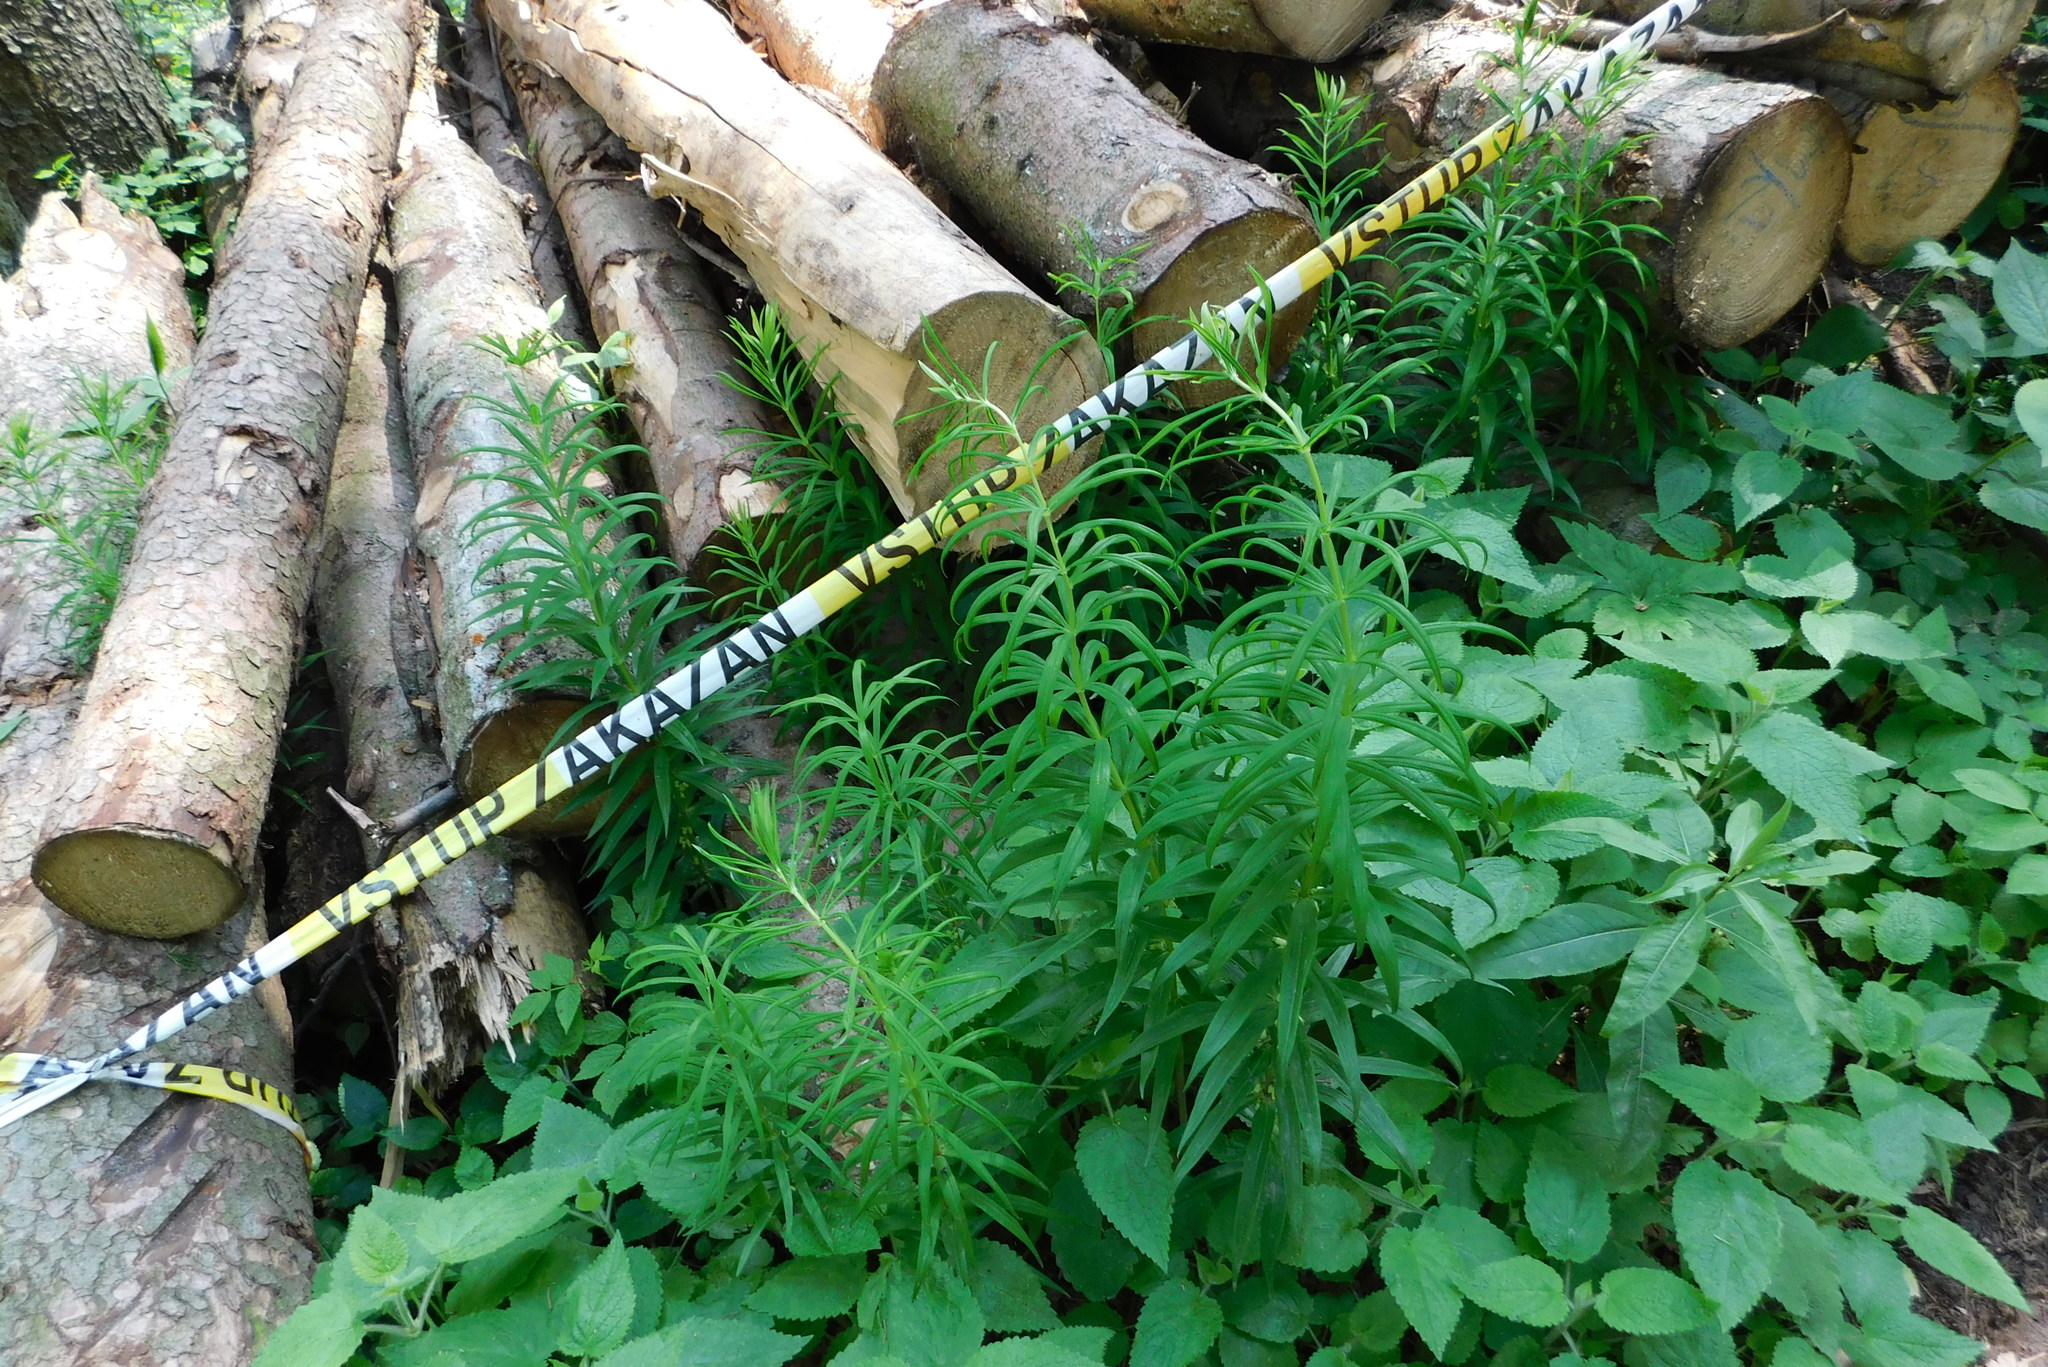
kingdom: Plantae
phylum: Tracheophyta
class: Liliopsida
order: Asparagales
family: Asparagaceae
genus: Polygonatum
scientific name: Polygonatum verticillatum
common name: Whorled solomon's-seal
